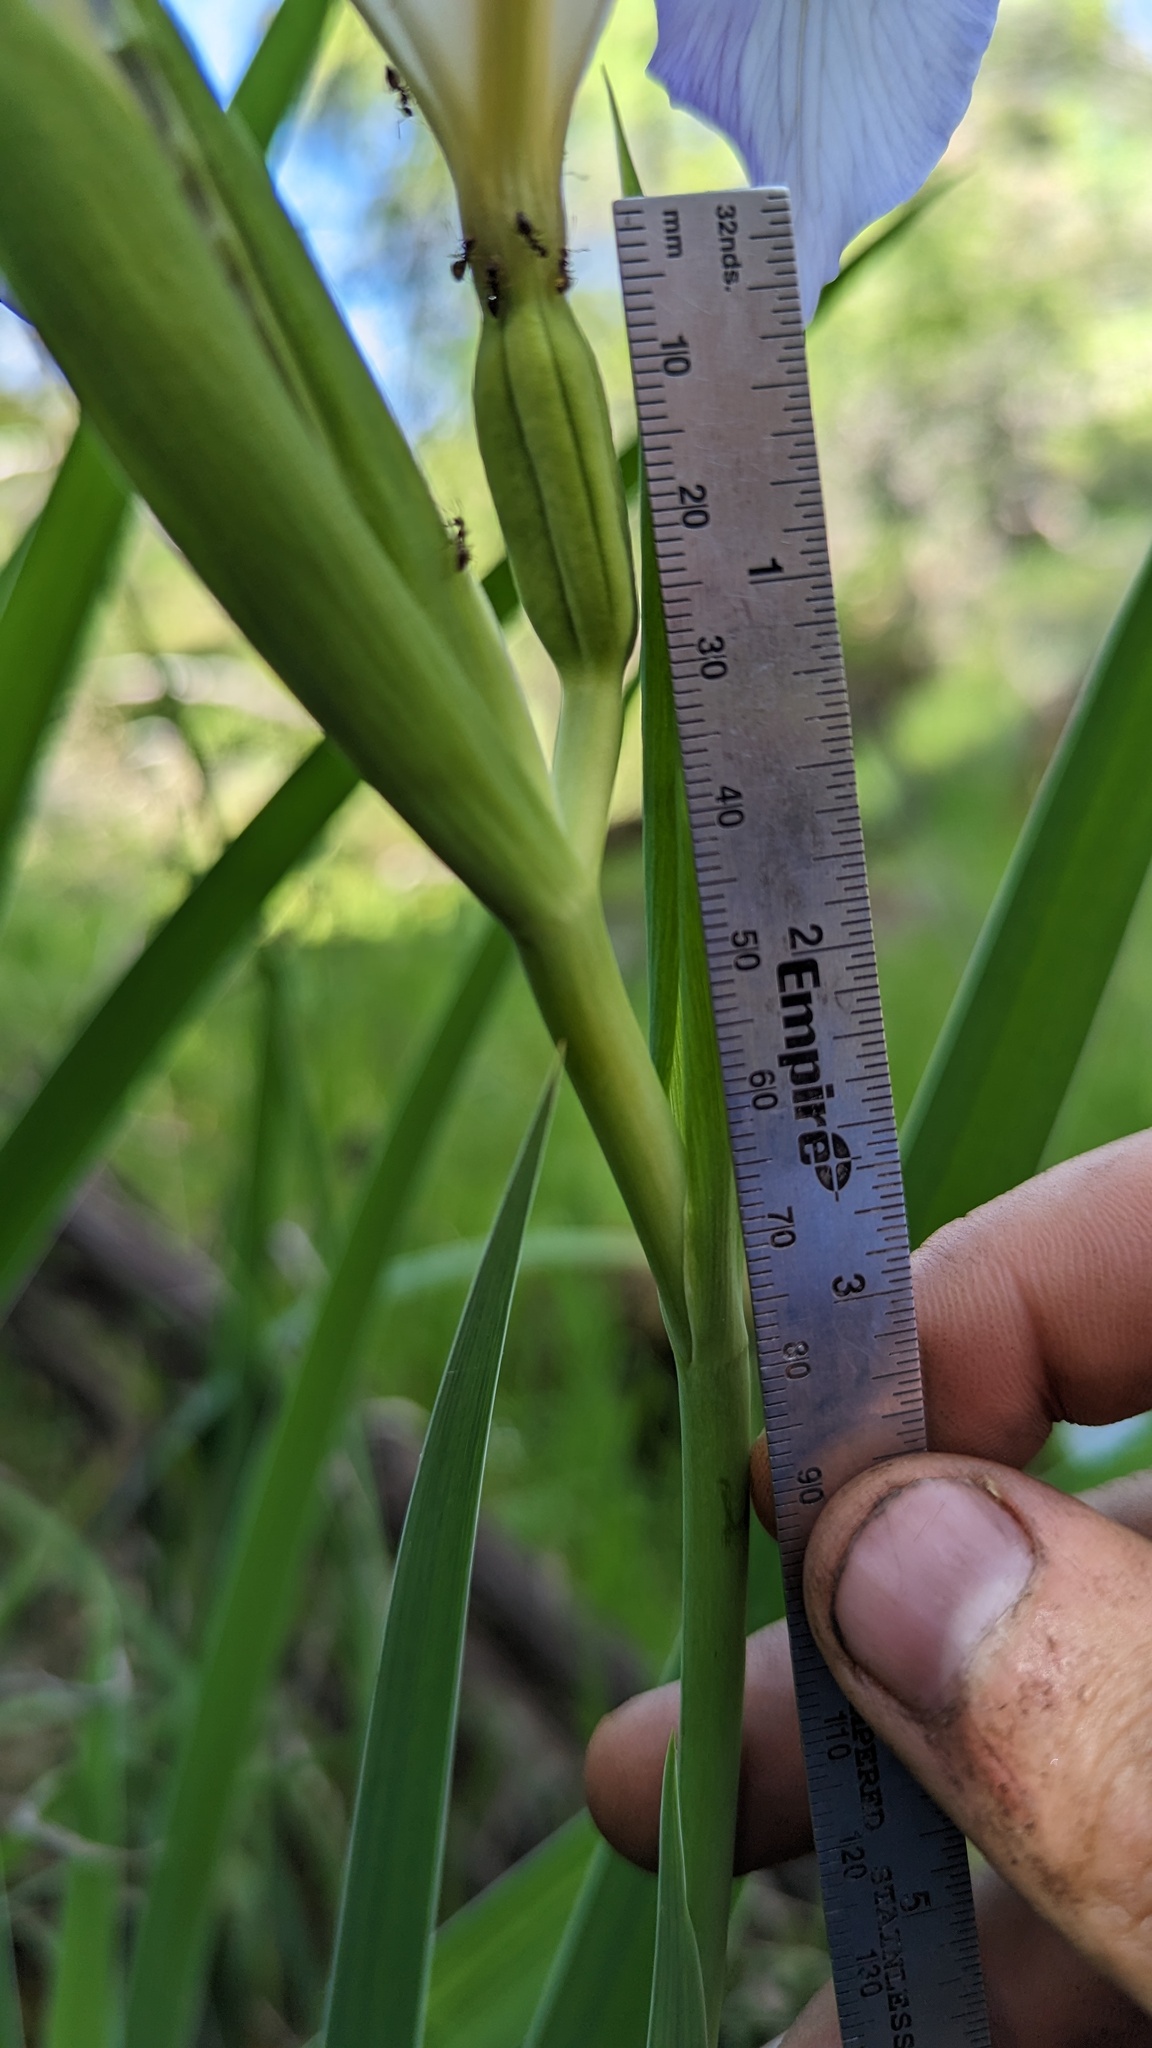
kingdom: Plantae
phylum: Tracheophyta
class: Liliopsida
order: Asparagales
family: Iridaceae
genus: Iris
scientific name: Iris munzii
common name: Munz's iris
